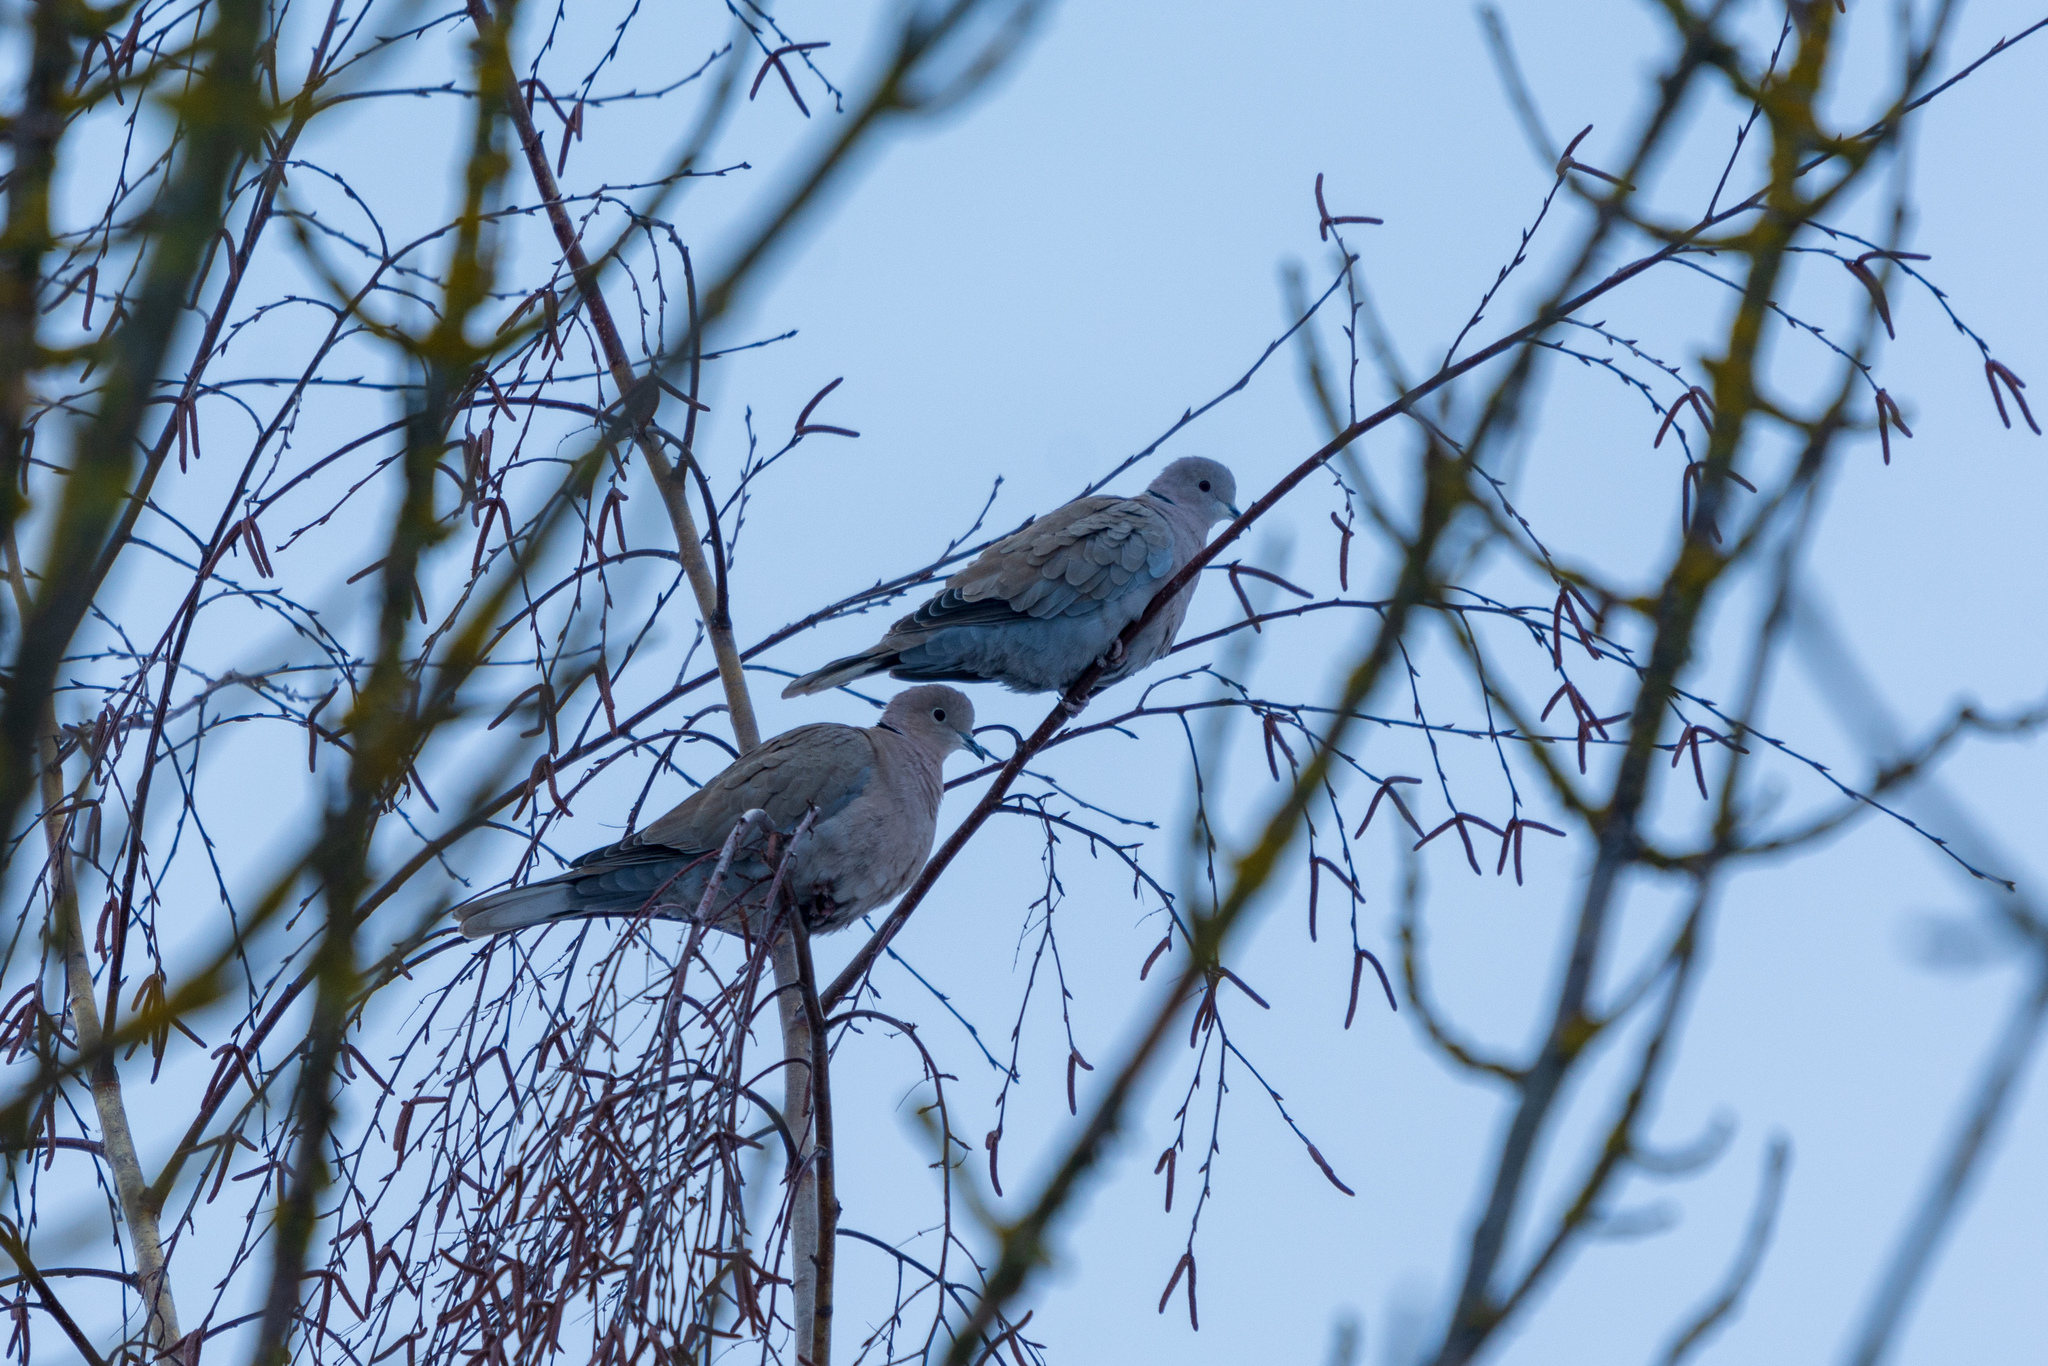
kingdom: Animalia
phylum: Chordata
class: Aves
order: Columbiformes
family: Columbidae
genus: Streptopelia
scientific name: Streptopelia decaocto
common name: Eurasian collared dove
